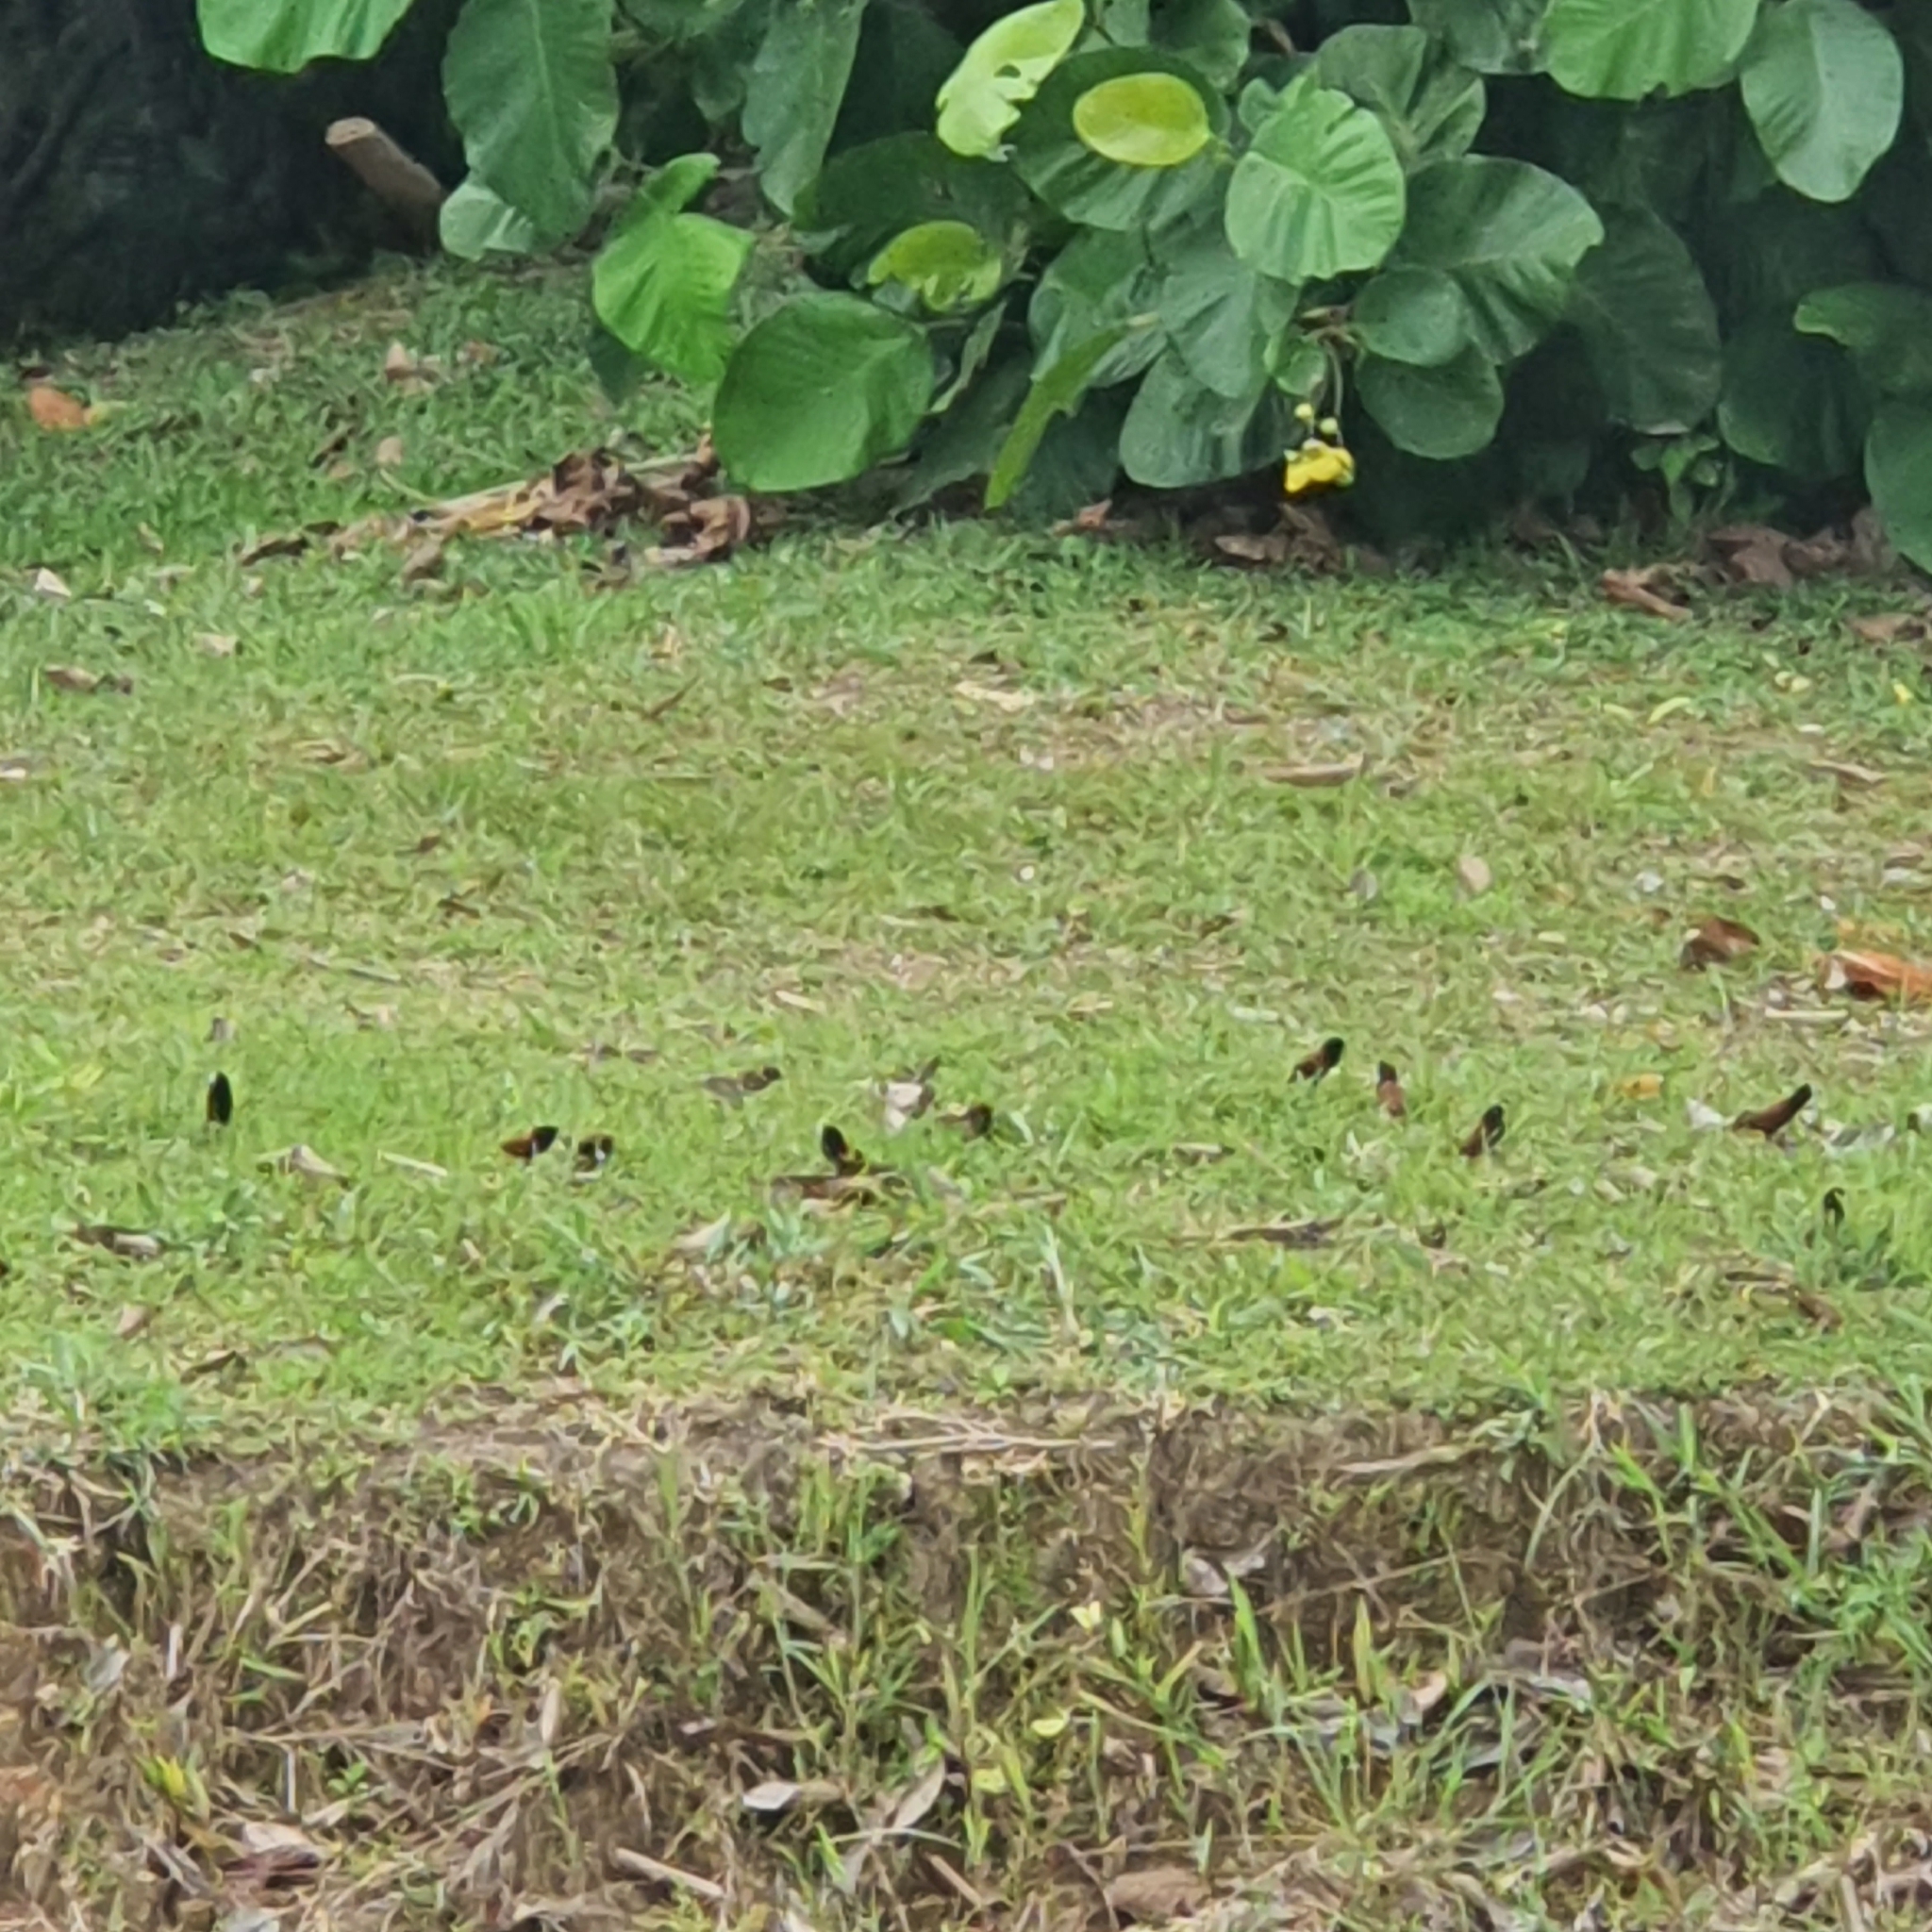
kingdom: Animalia
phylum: Chordata
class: Aves
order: Passeriformes
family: Estrildidae
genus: Lonchura
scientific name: Lonchura atricapilla
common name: Chestnut munia
